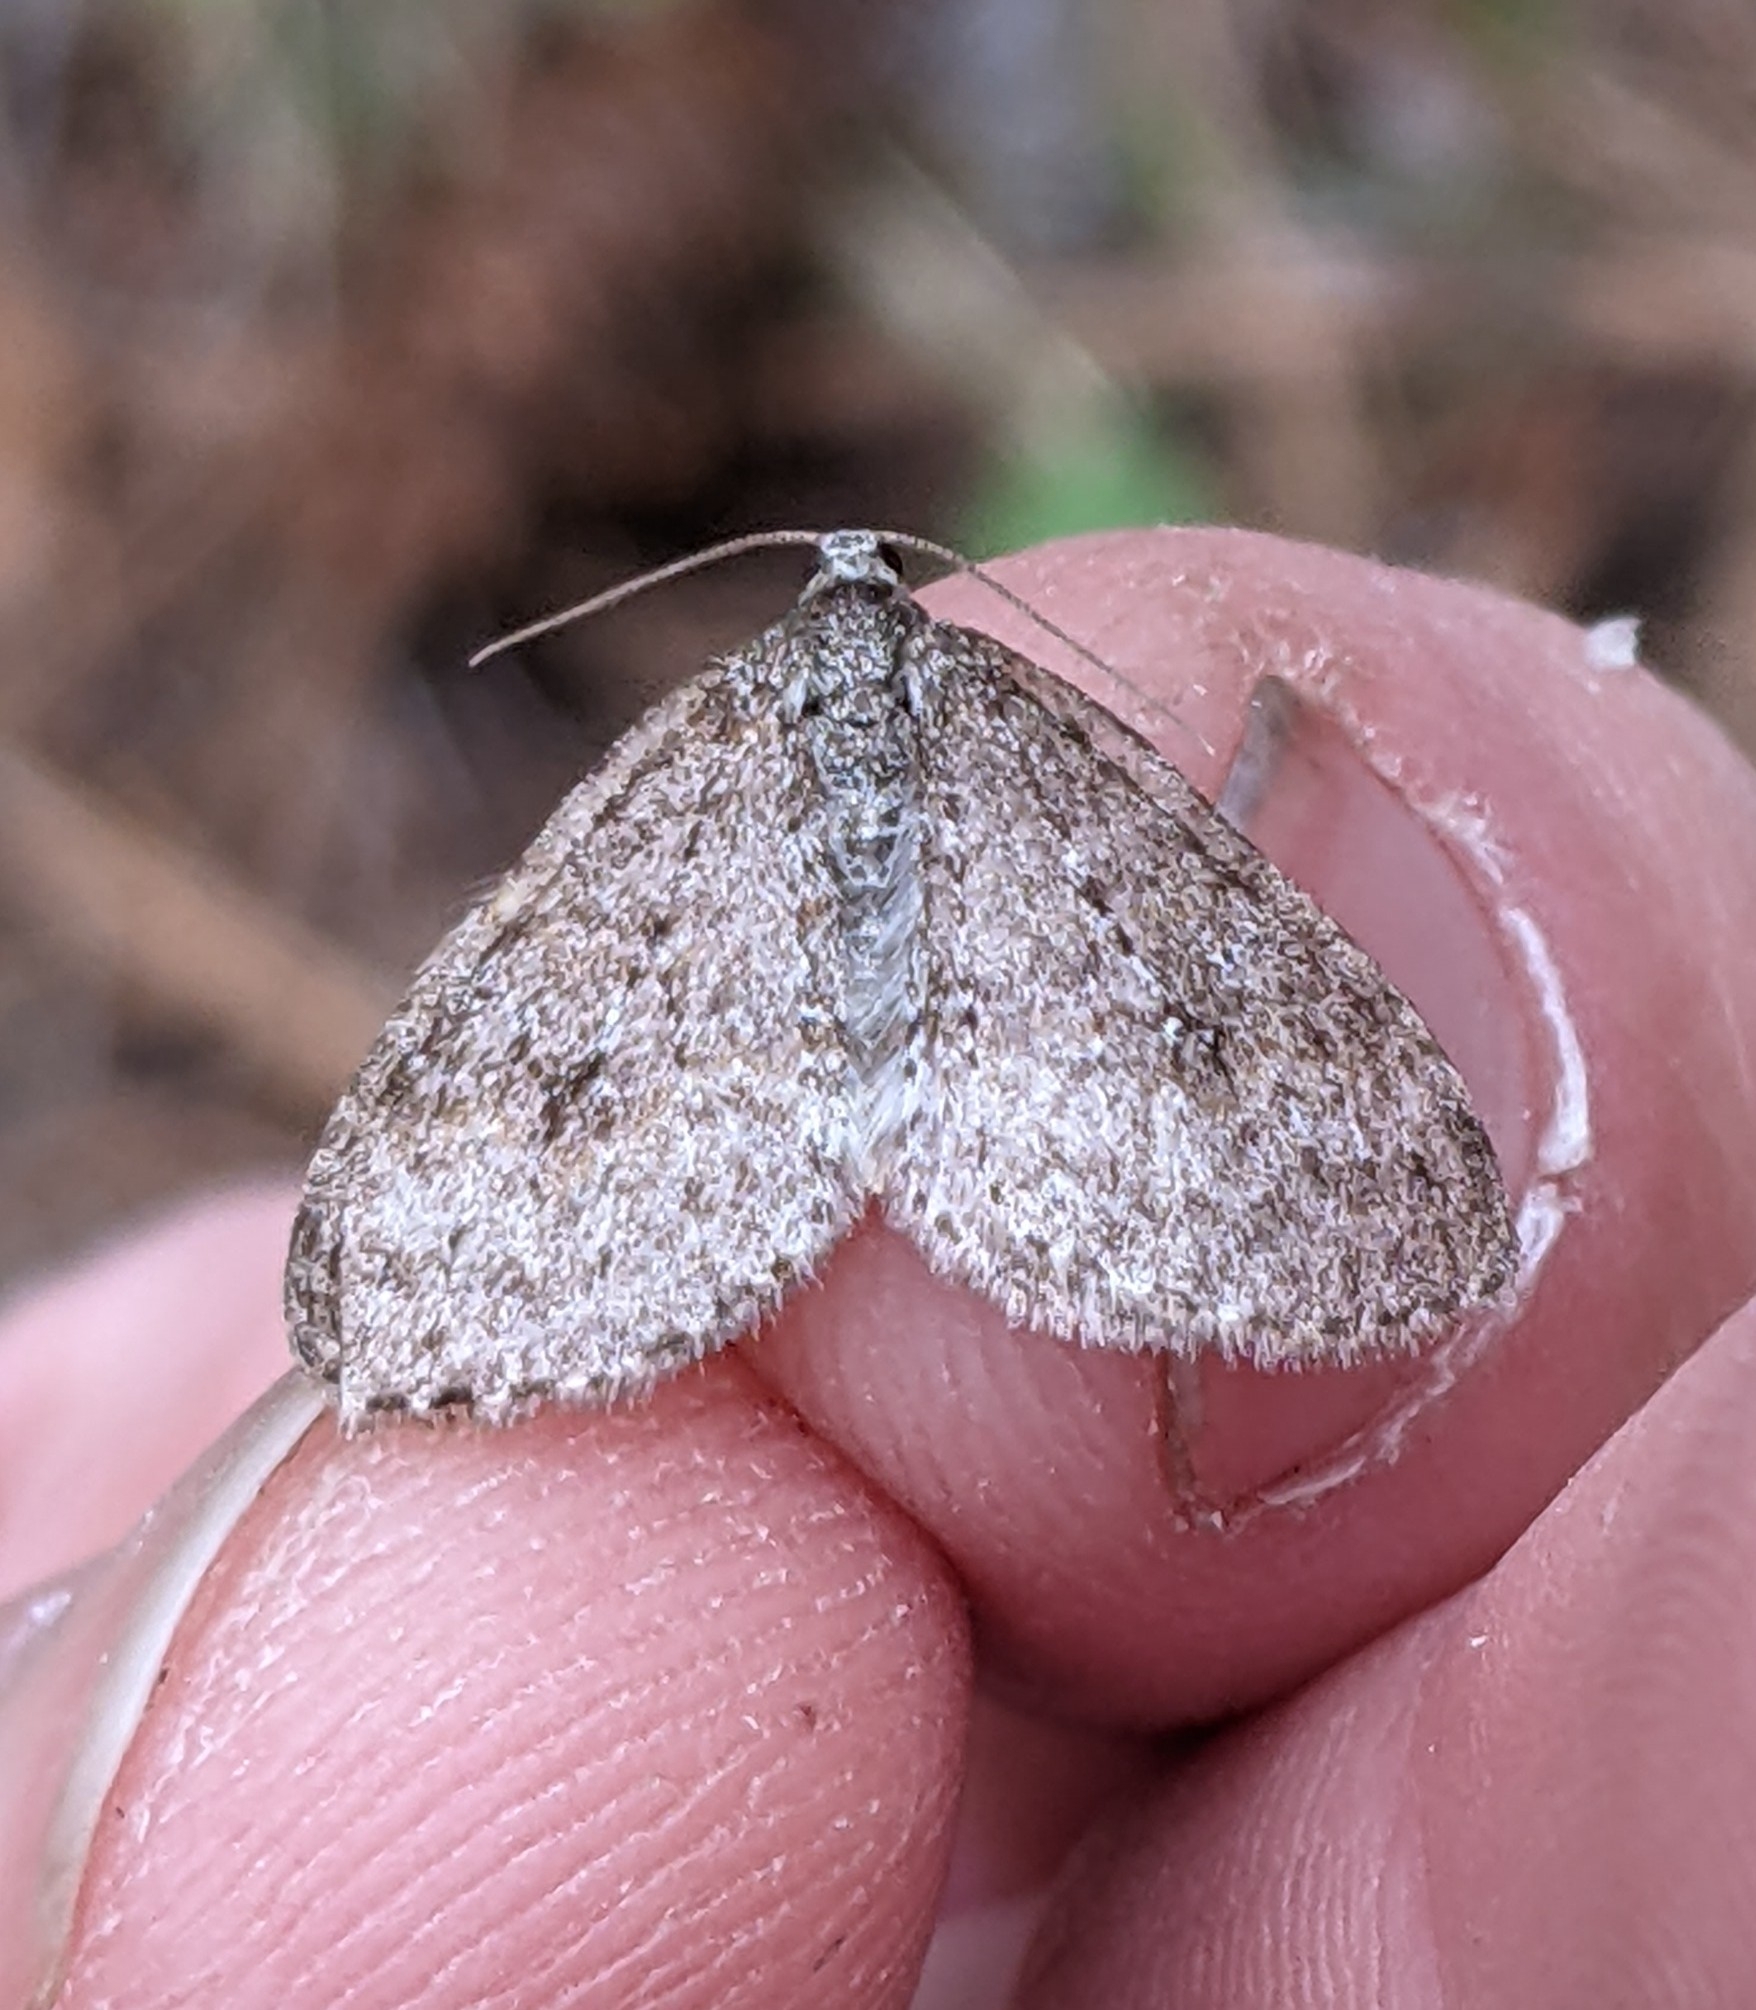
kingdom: Animalia
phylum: Arthropoda
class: Insecta
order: Lepidoptera
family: Geometridae
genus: Venusia
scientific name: Venusia pearsalli
